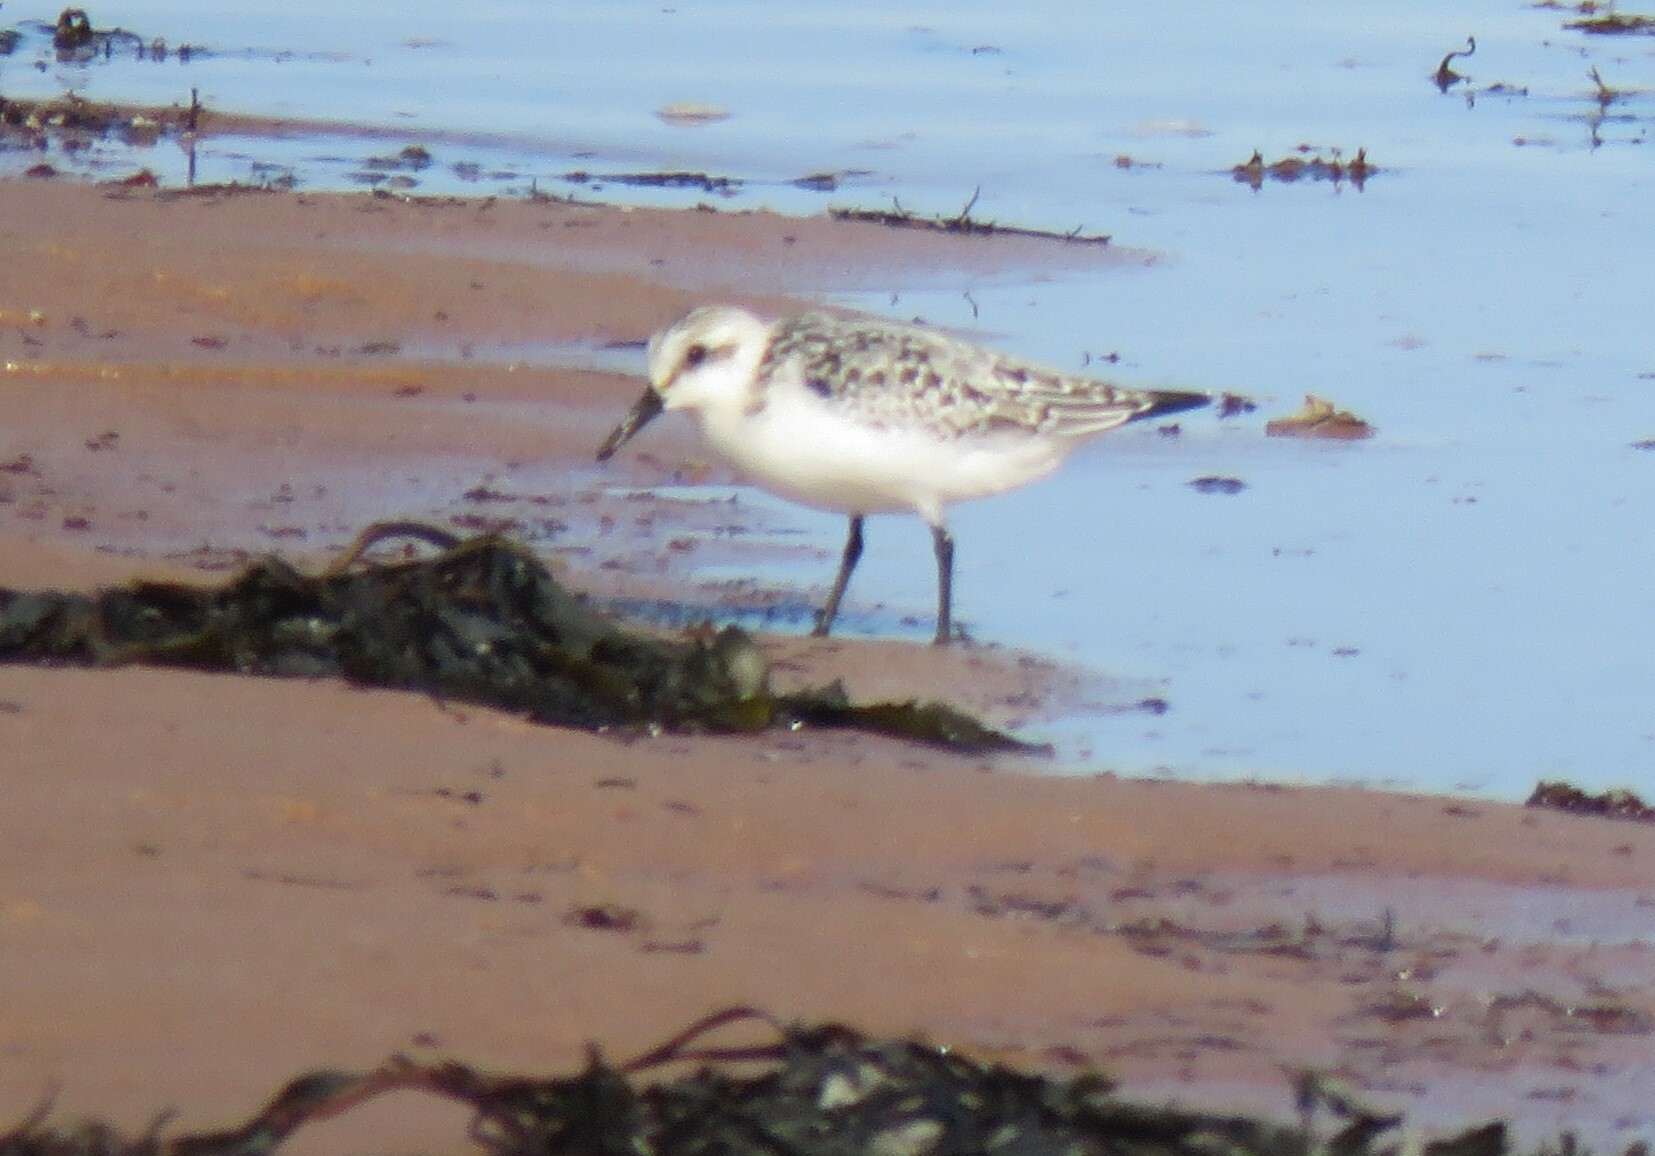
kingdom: Animalia
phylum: Chordata
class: Aves
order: Charadriiformes
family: Scolopacidae
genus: Calidris
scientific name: Calidris alba
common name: Sanderling
